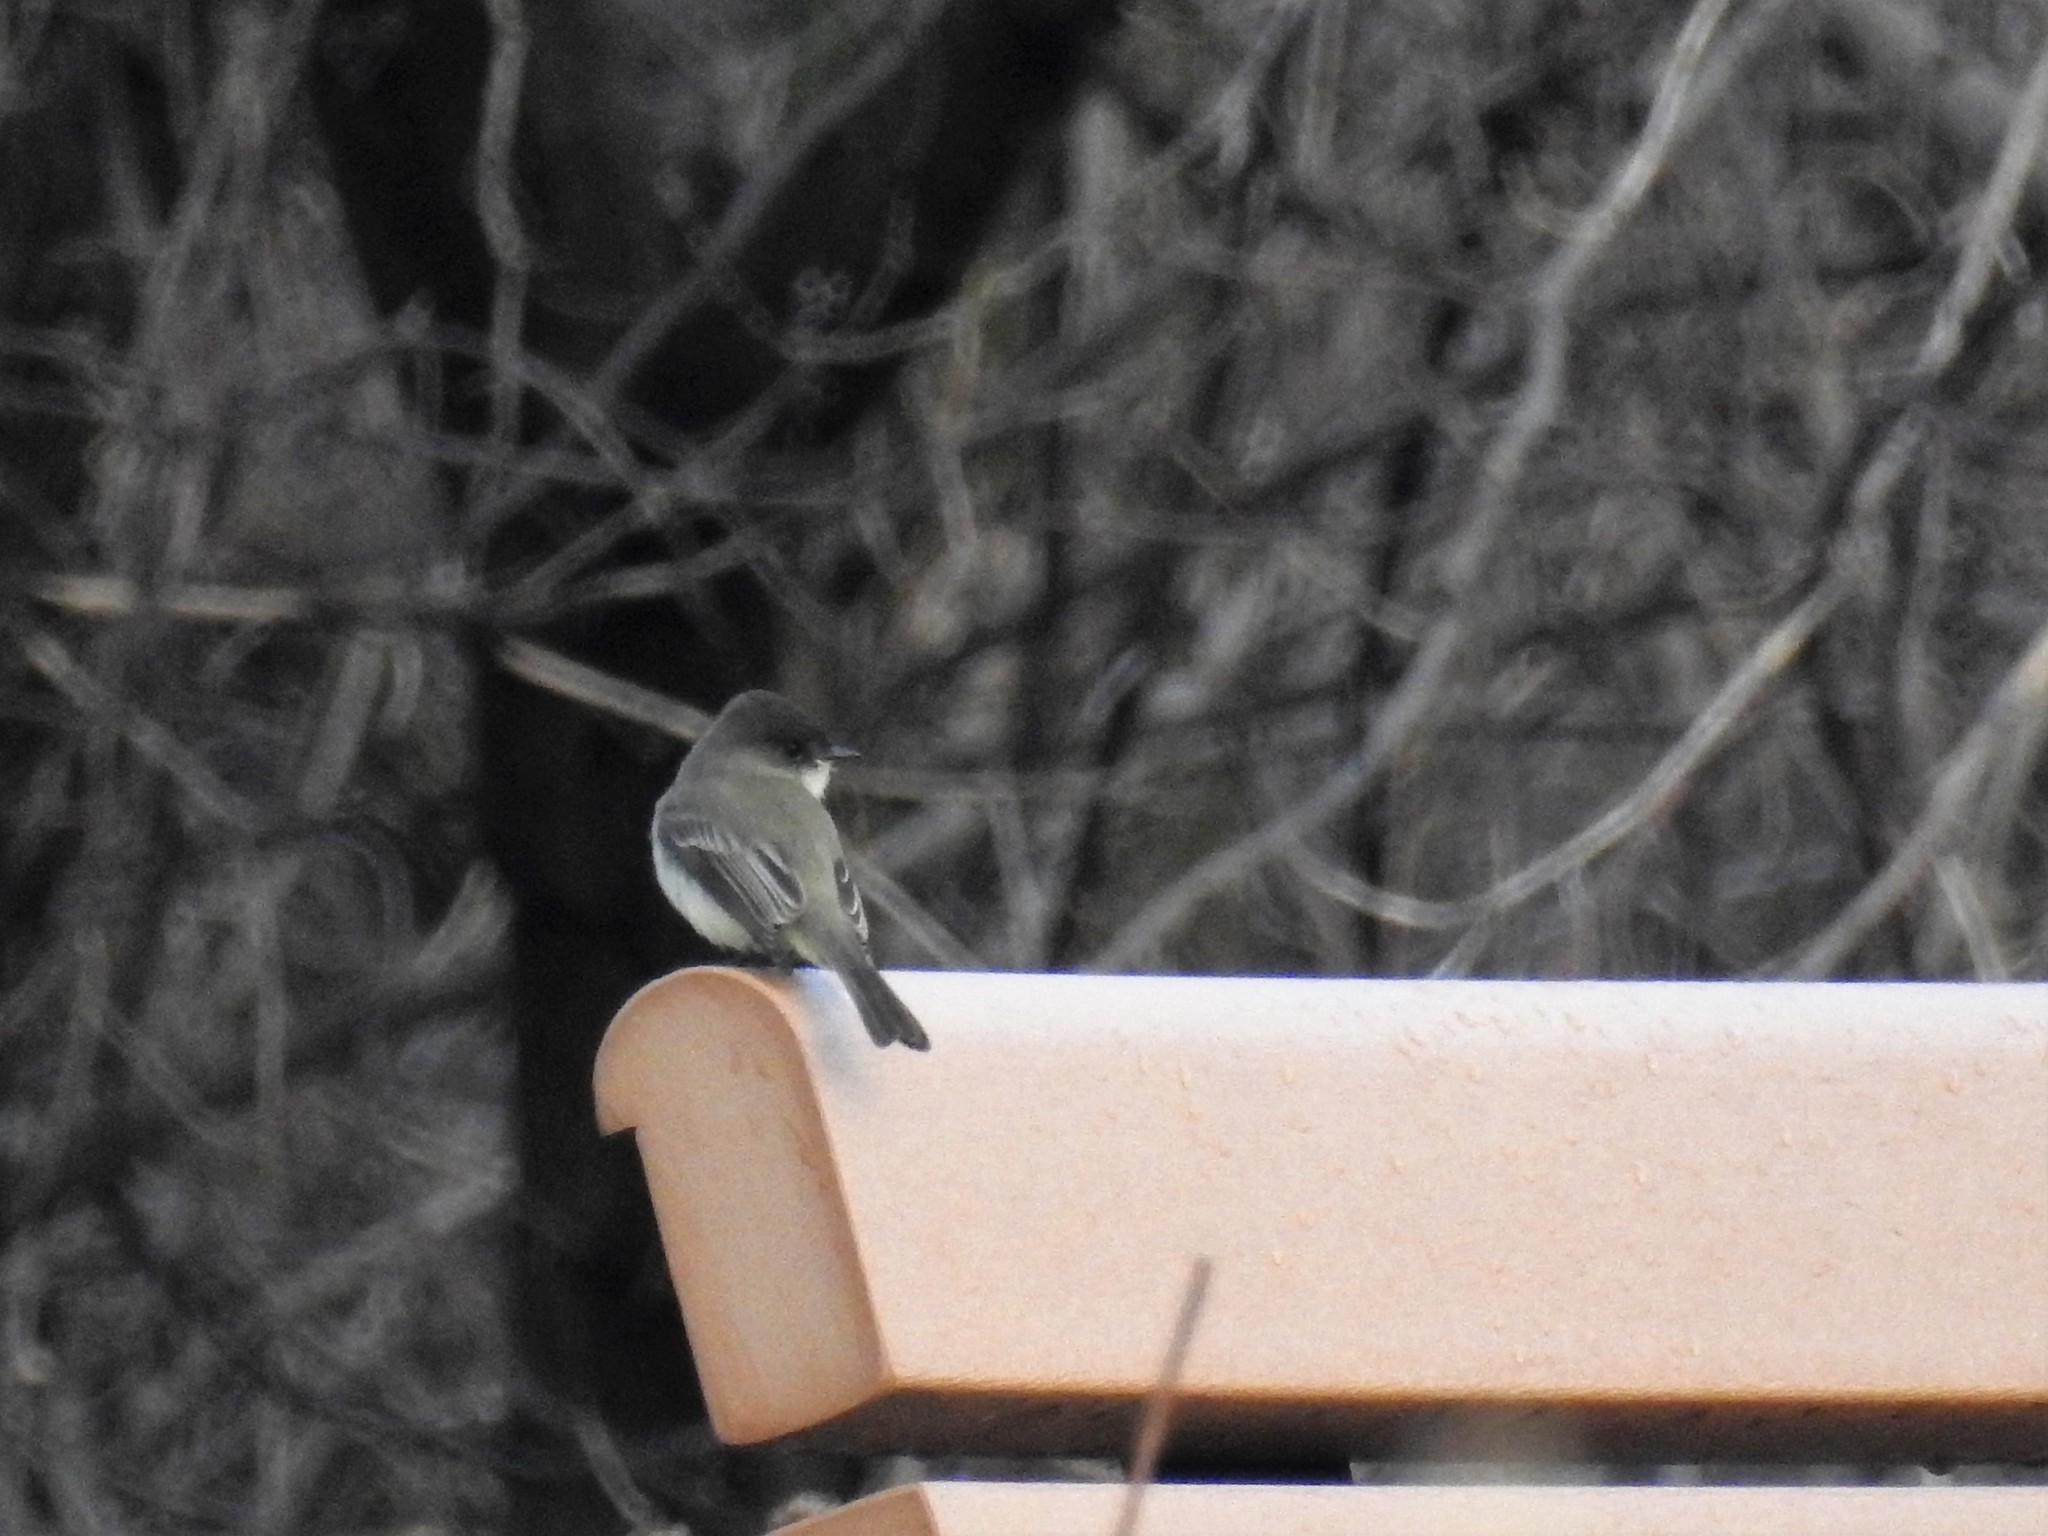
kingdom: Animalia
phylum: Chordata
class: Aves
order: Passeriformes
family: Tyrannidae
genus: Sayornis
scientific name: Sayornis phoebe
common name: Eastern phoebe
